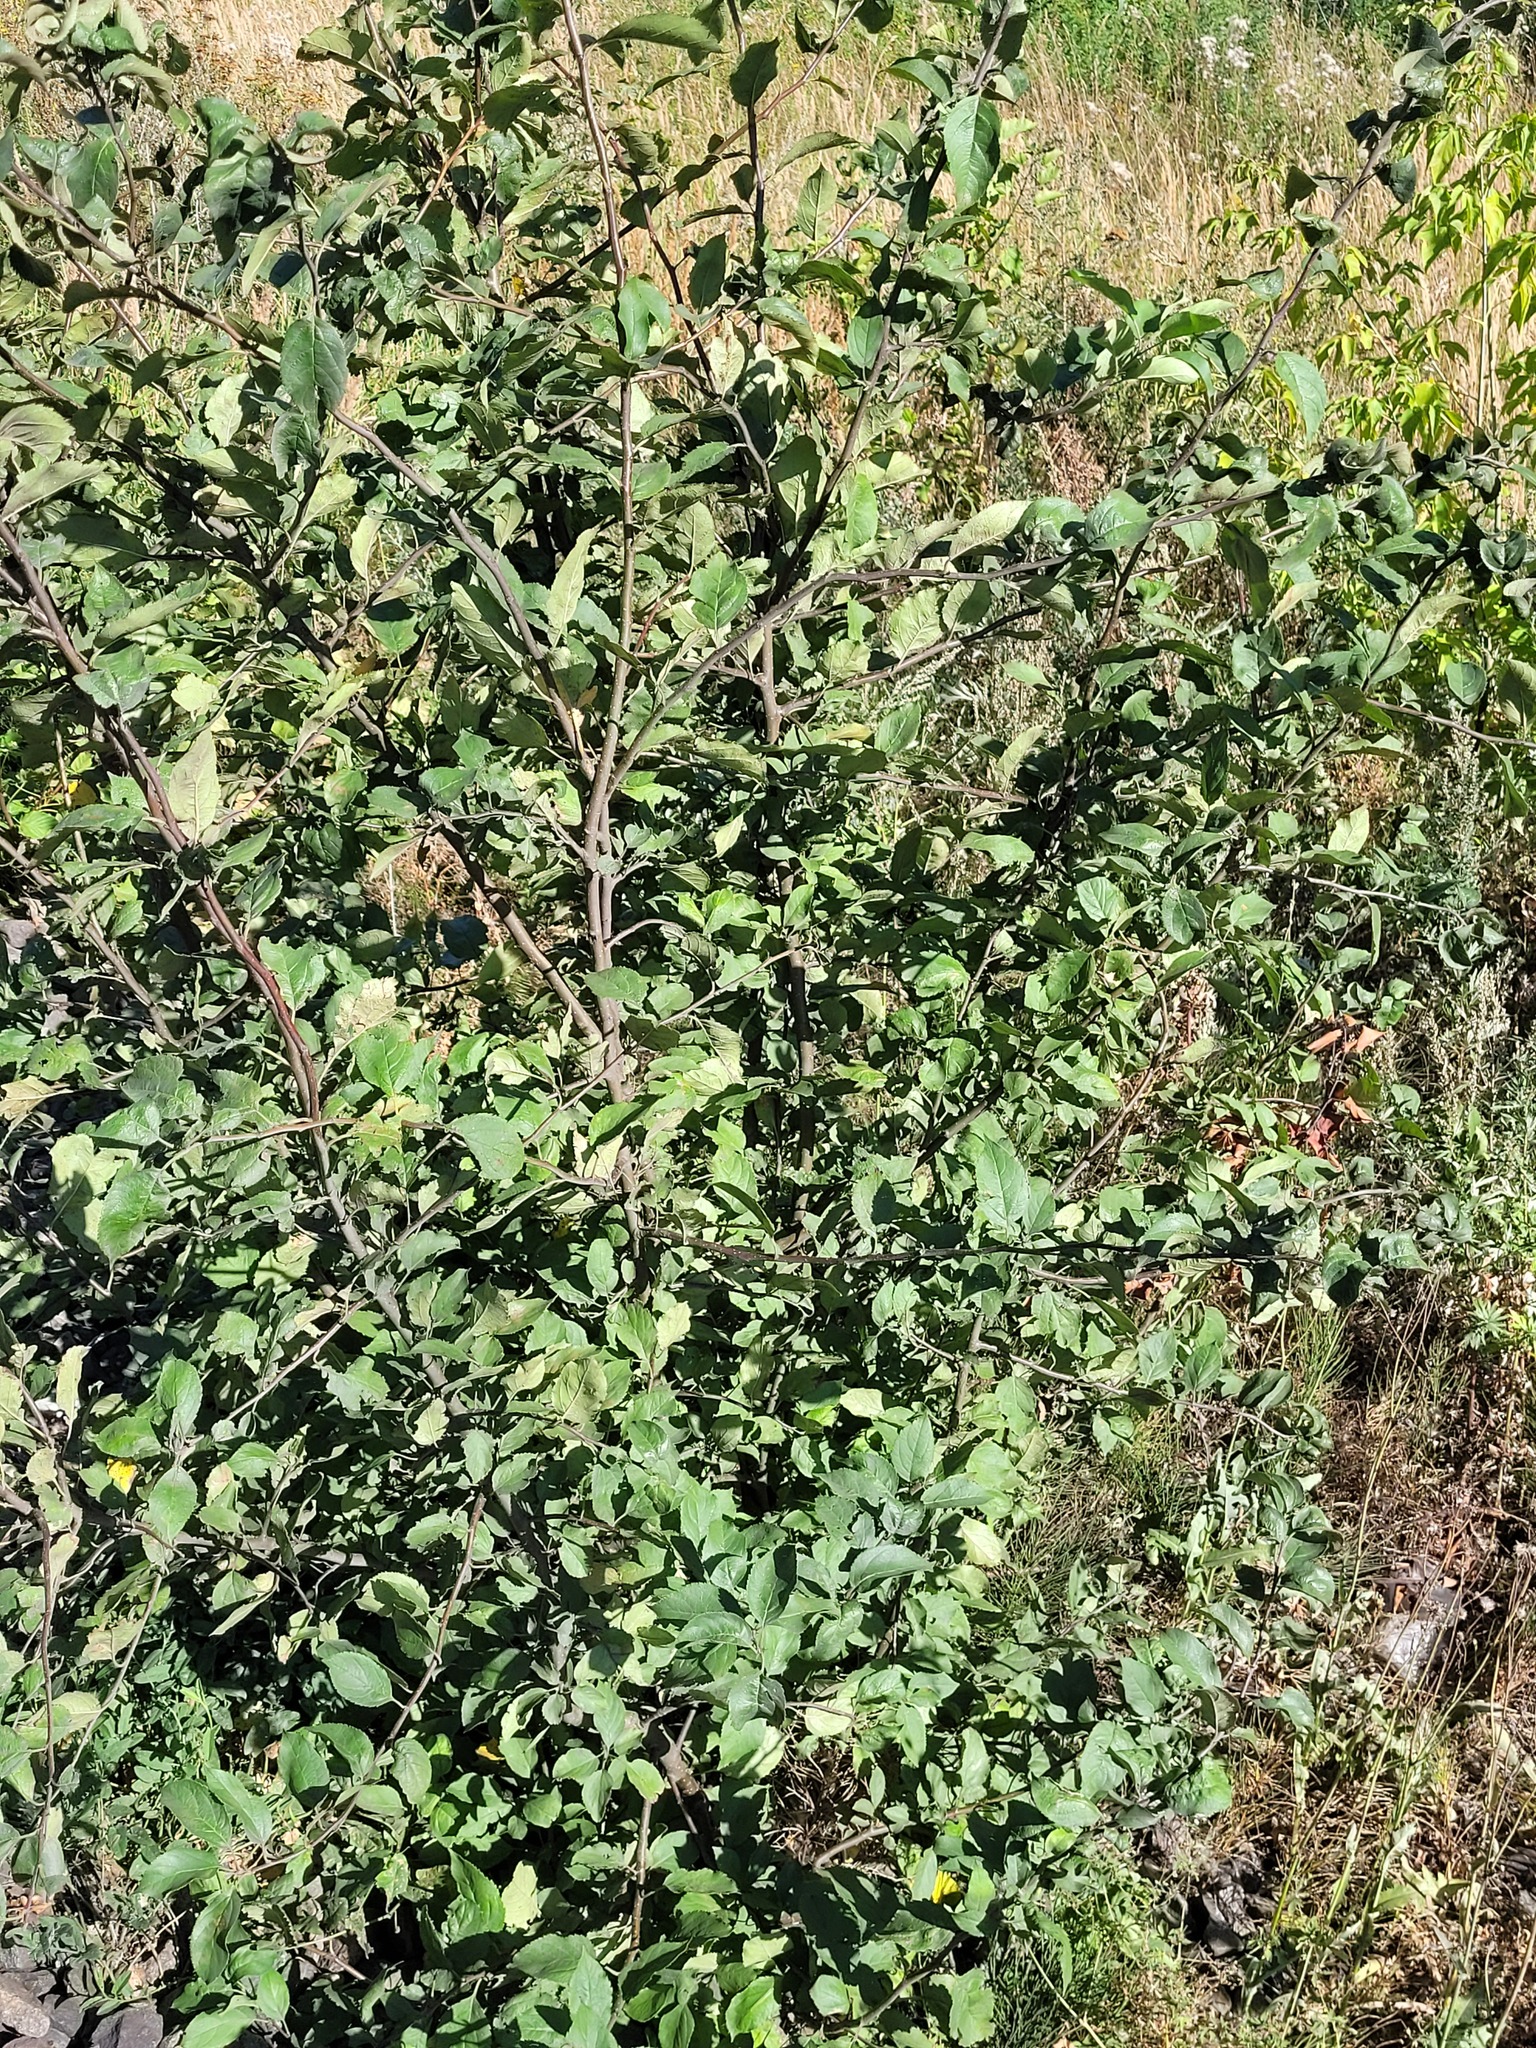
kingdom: Plantae
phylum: Tracheophyta
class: Magnoliopsida
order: Rosales
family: Rosaceae
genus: Malus
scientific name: Malus domestica
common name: Apple
